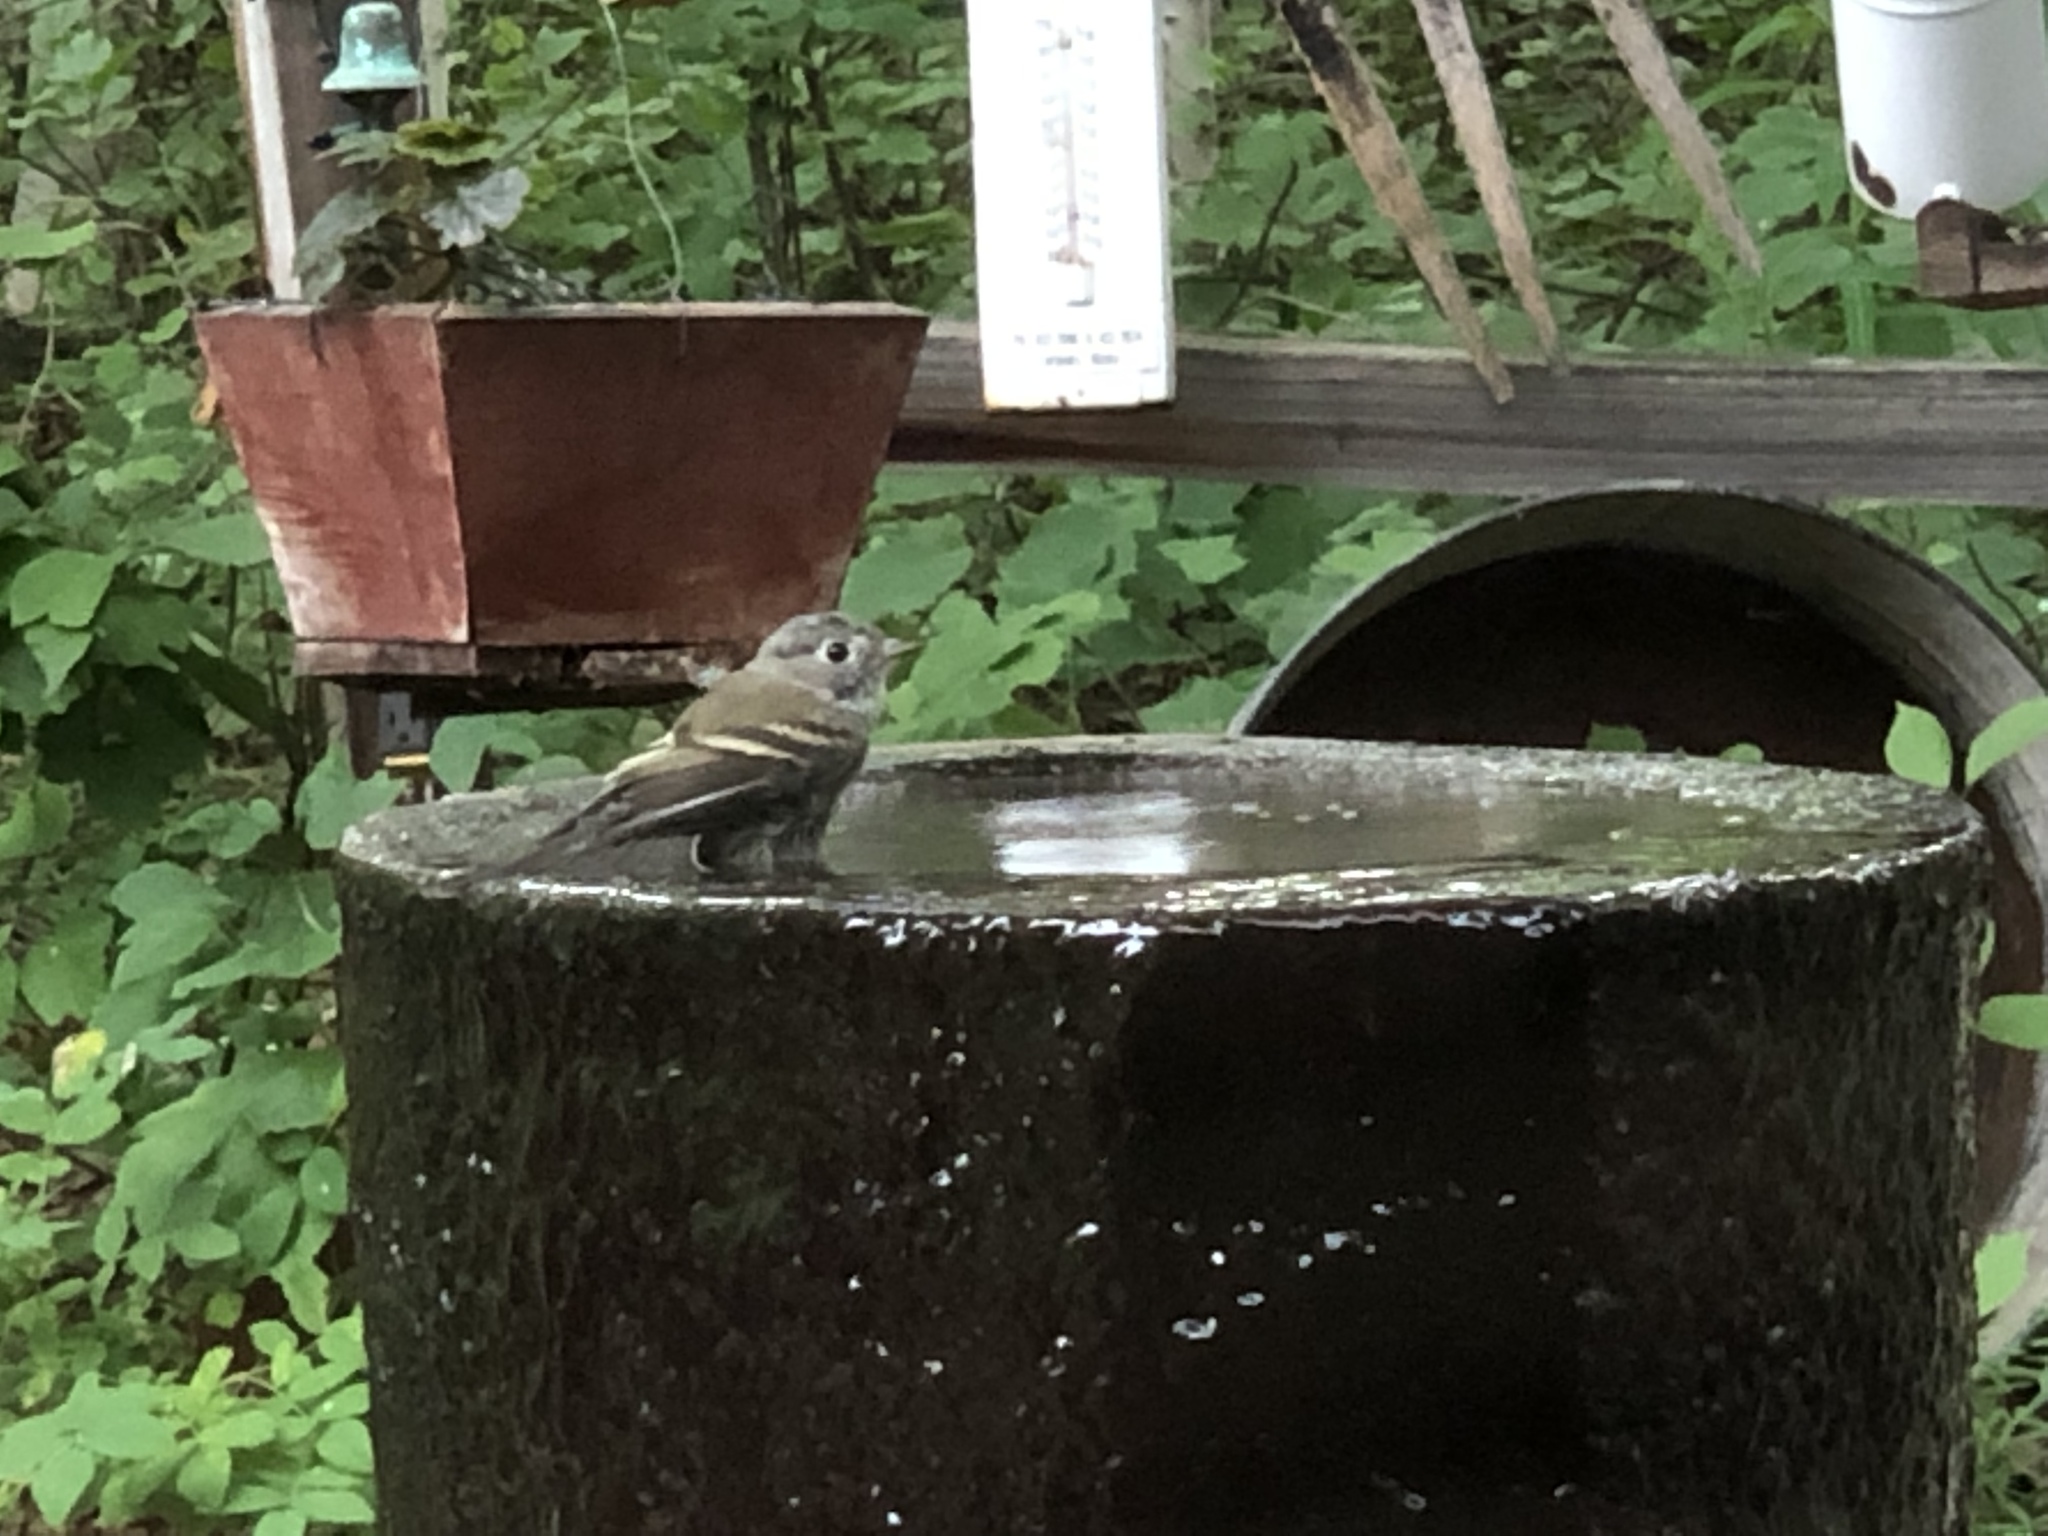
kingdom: Animalia
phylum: Chordata
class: Aves
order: Passeriformes
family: Tyrannidae
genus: Empidonax
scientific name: Empidonax hammondii
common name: Hammond's flycatcher
